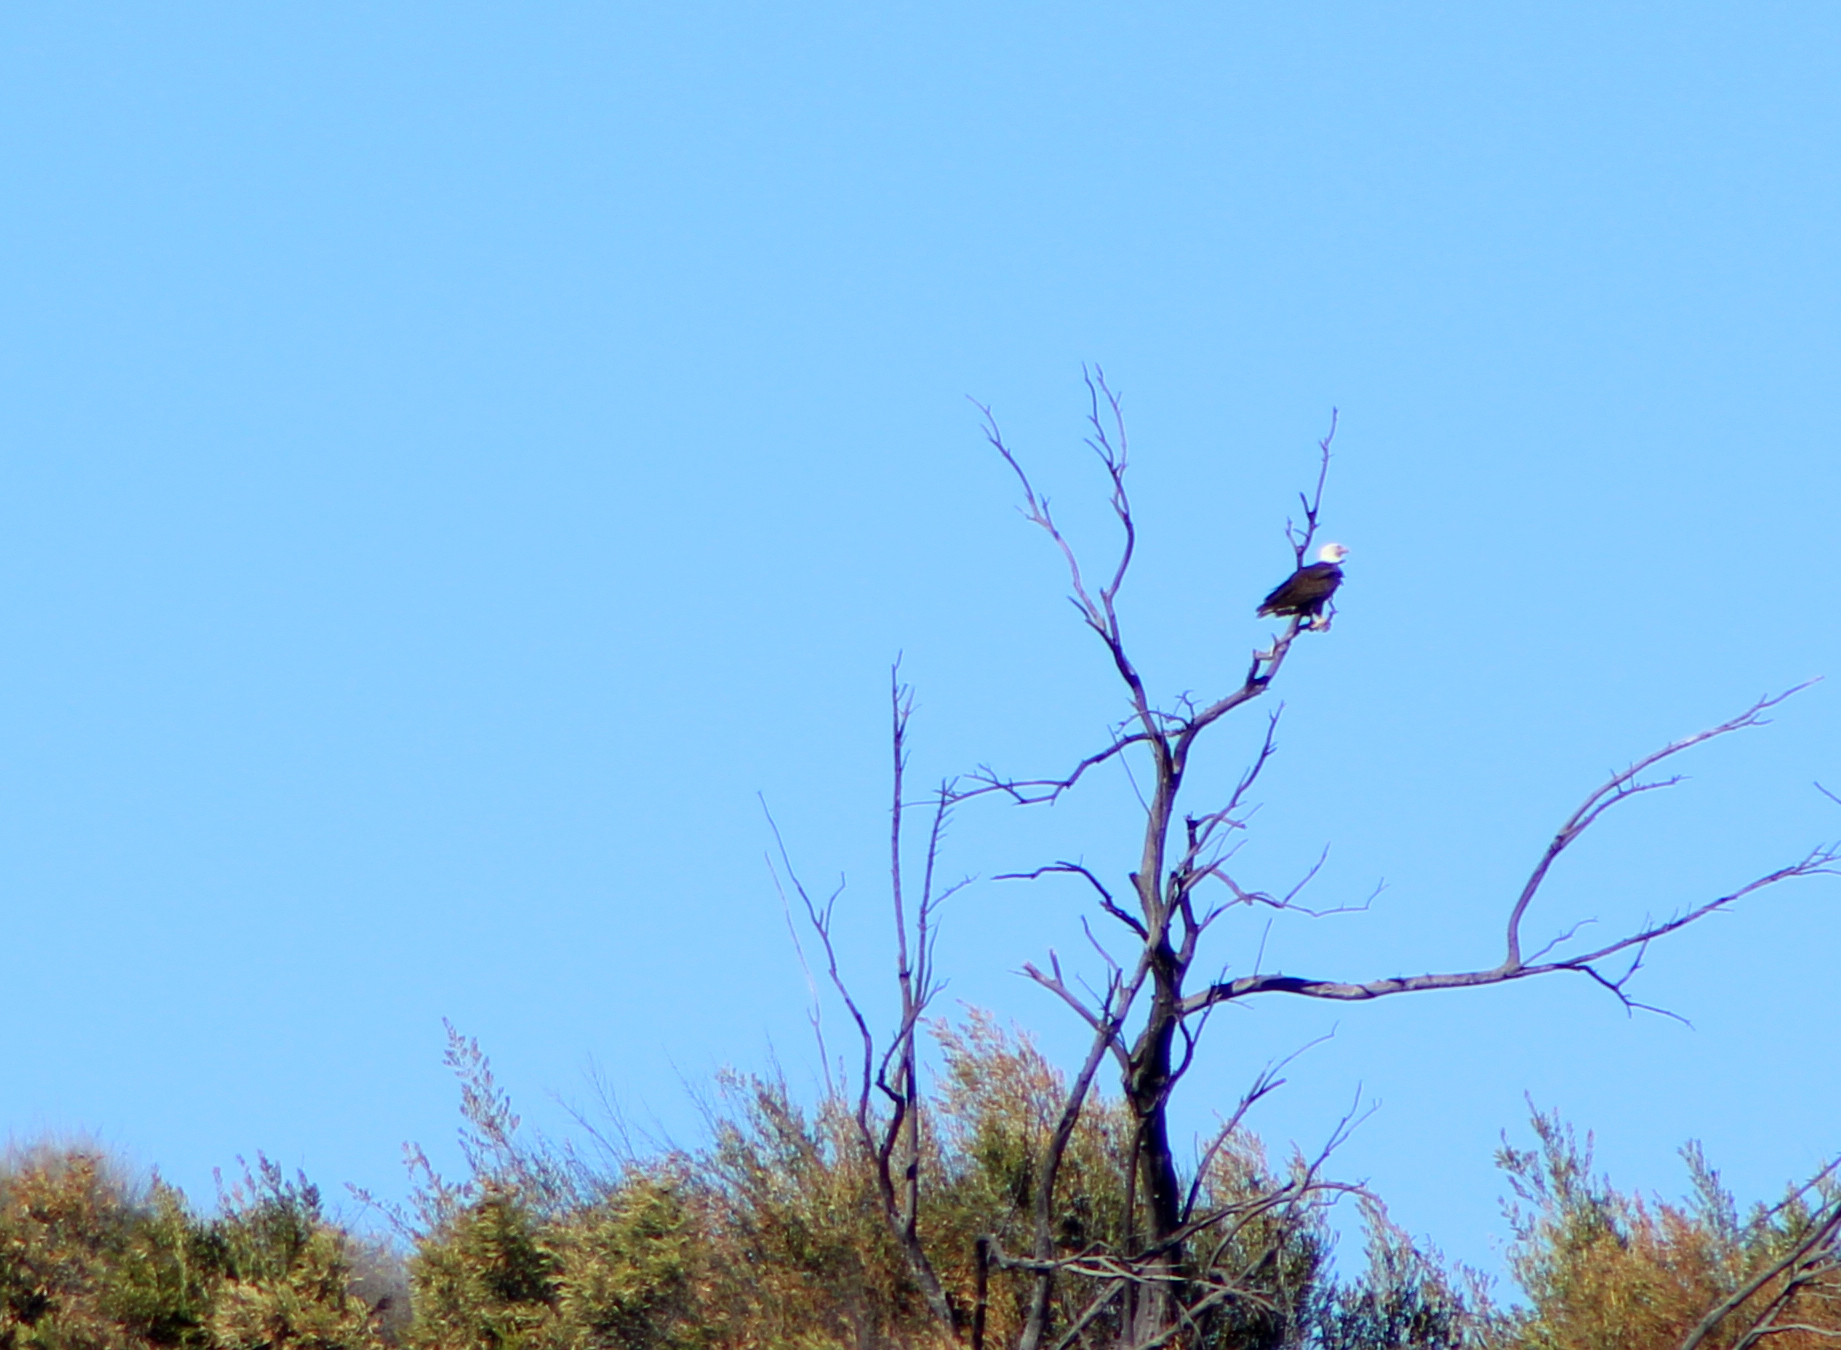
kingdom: Animalia
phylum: Chordata
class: Aves
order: Accipitriformes
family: Accipitridae
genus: Haliaeetus
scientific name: Haliaeetus leucocephalus
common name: Bald eagle
